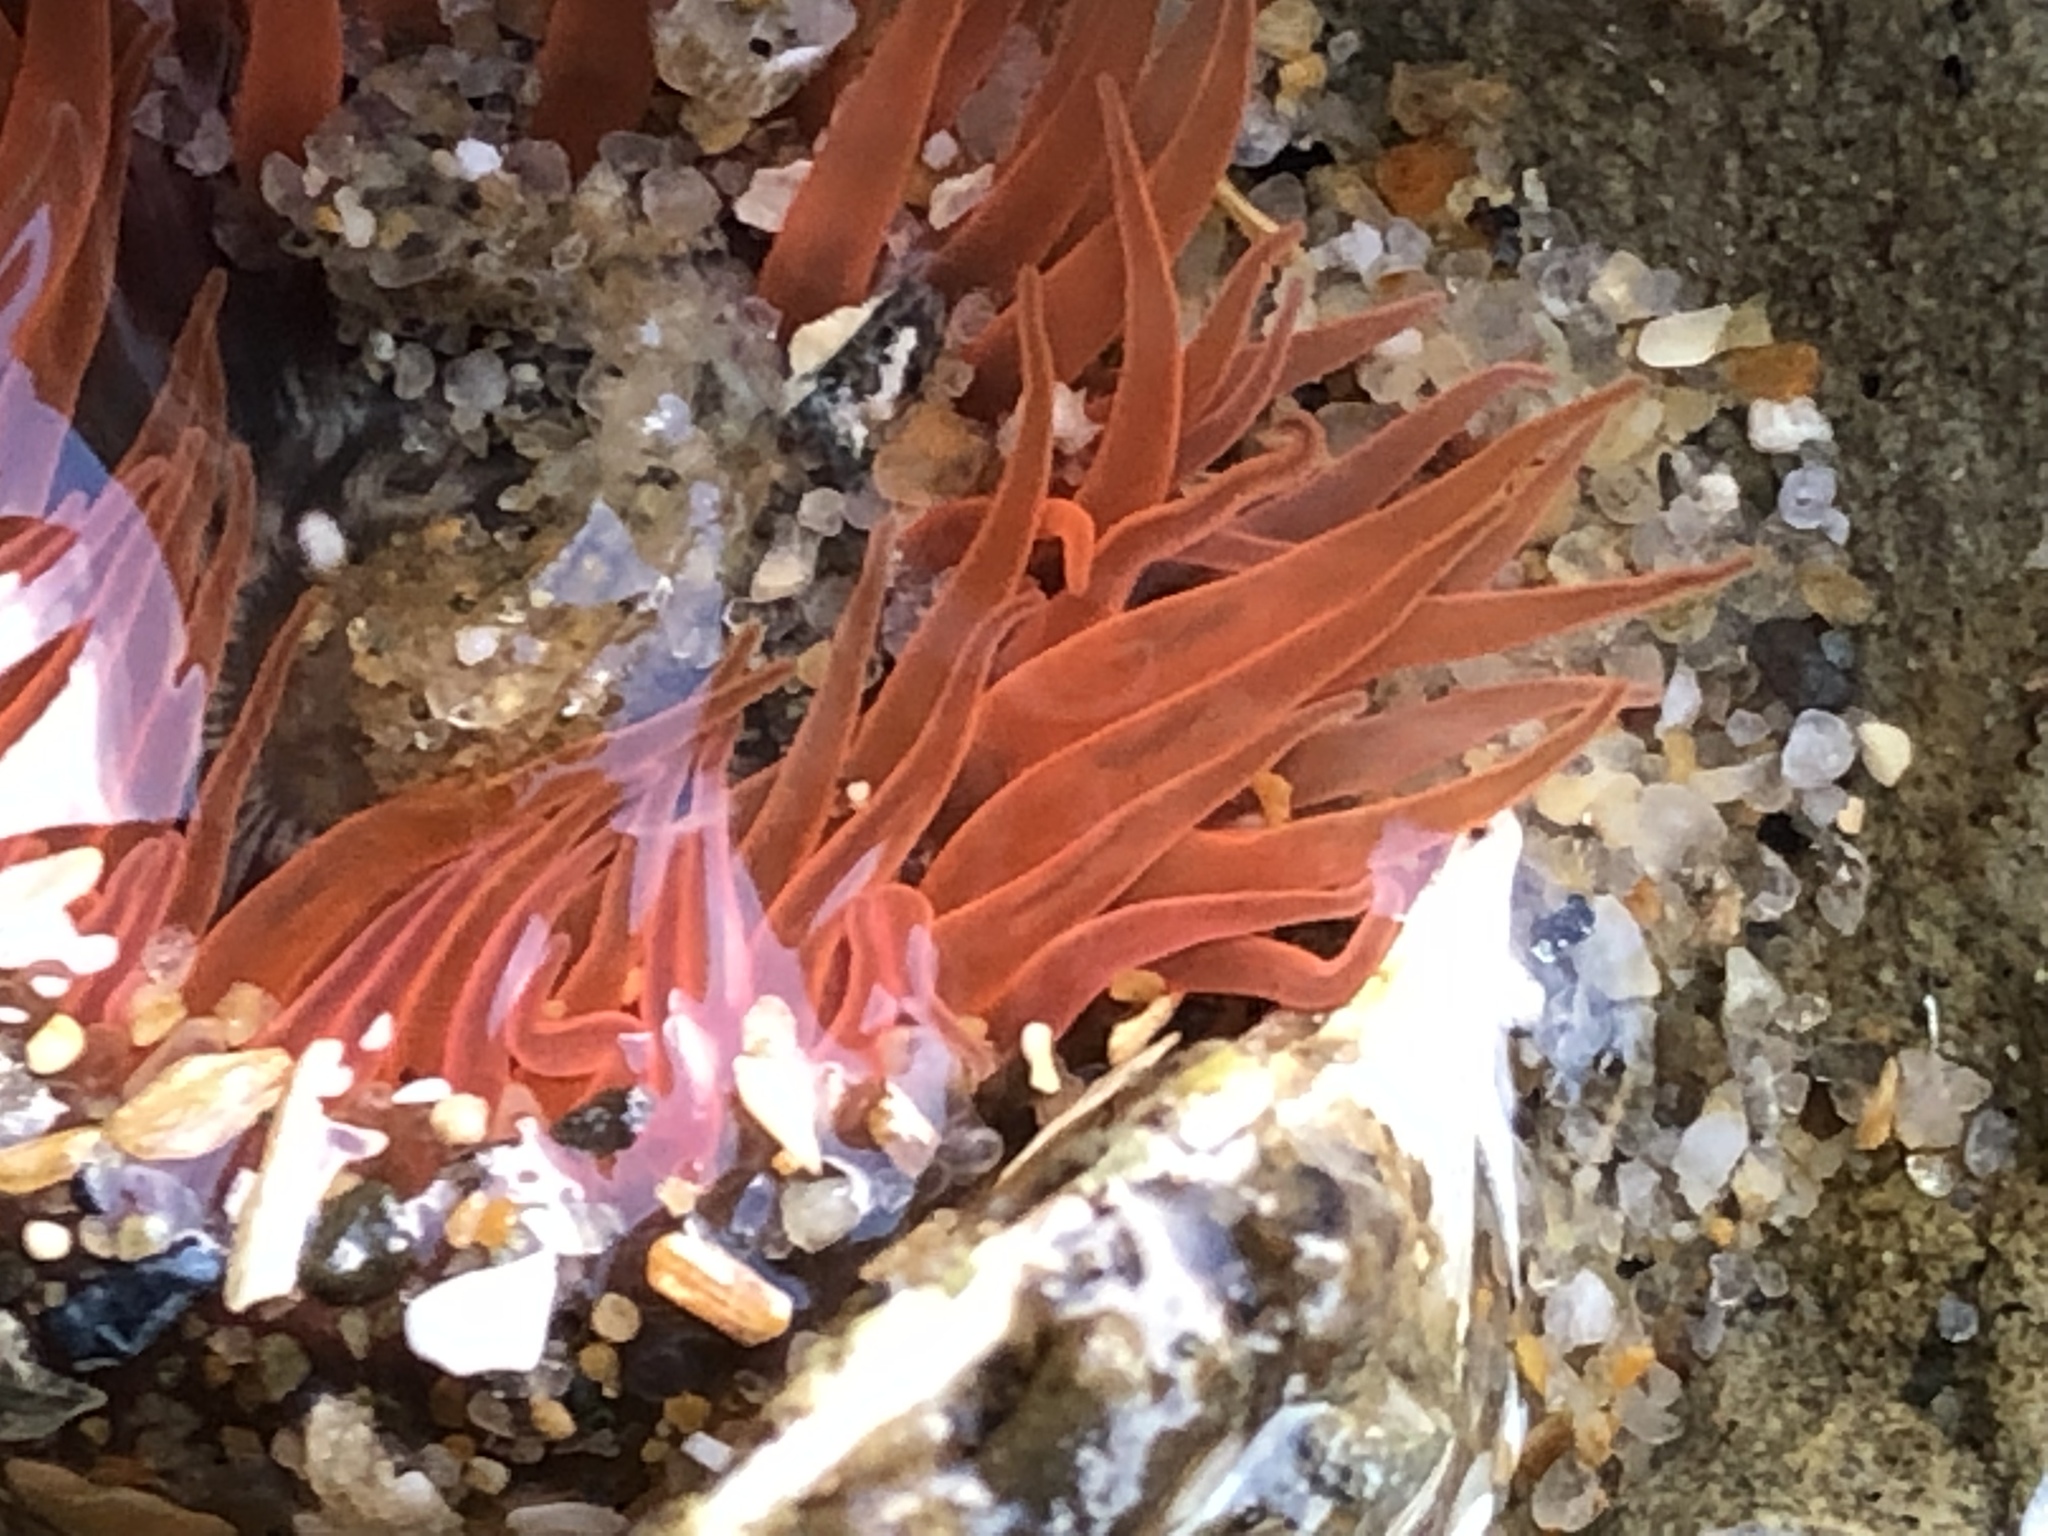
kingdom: Animalia
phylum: Cnidaria
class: Anthozoa
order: Actiniaria
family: Actiniidae
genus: Anthopleura
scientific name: Anthopleura artemisia
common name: Buried sea anemone
